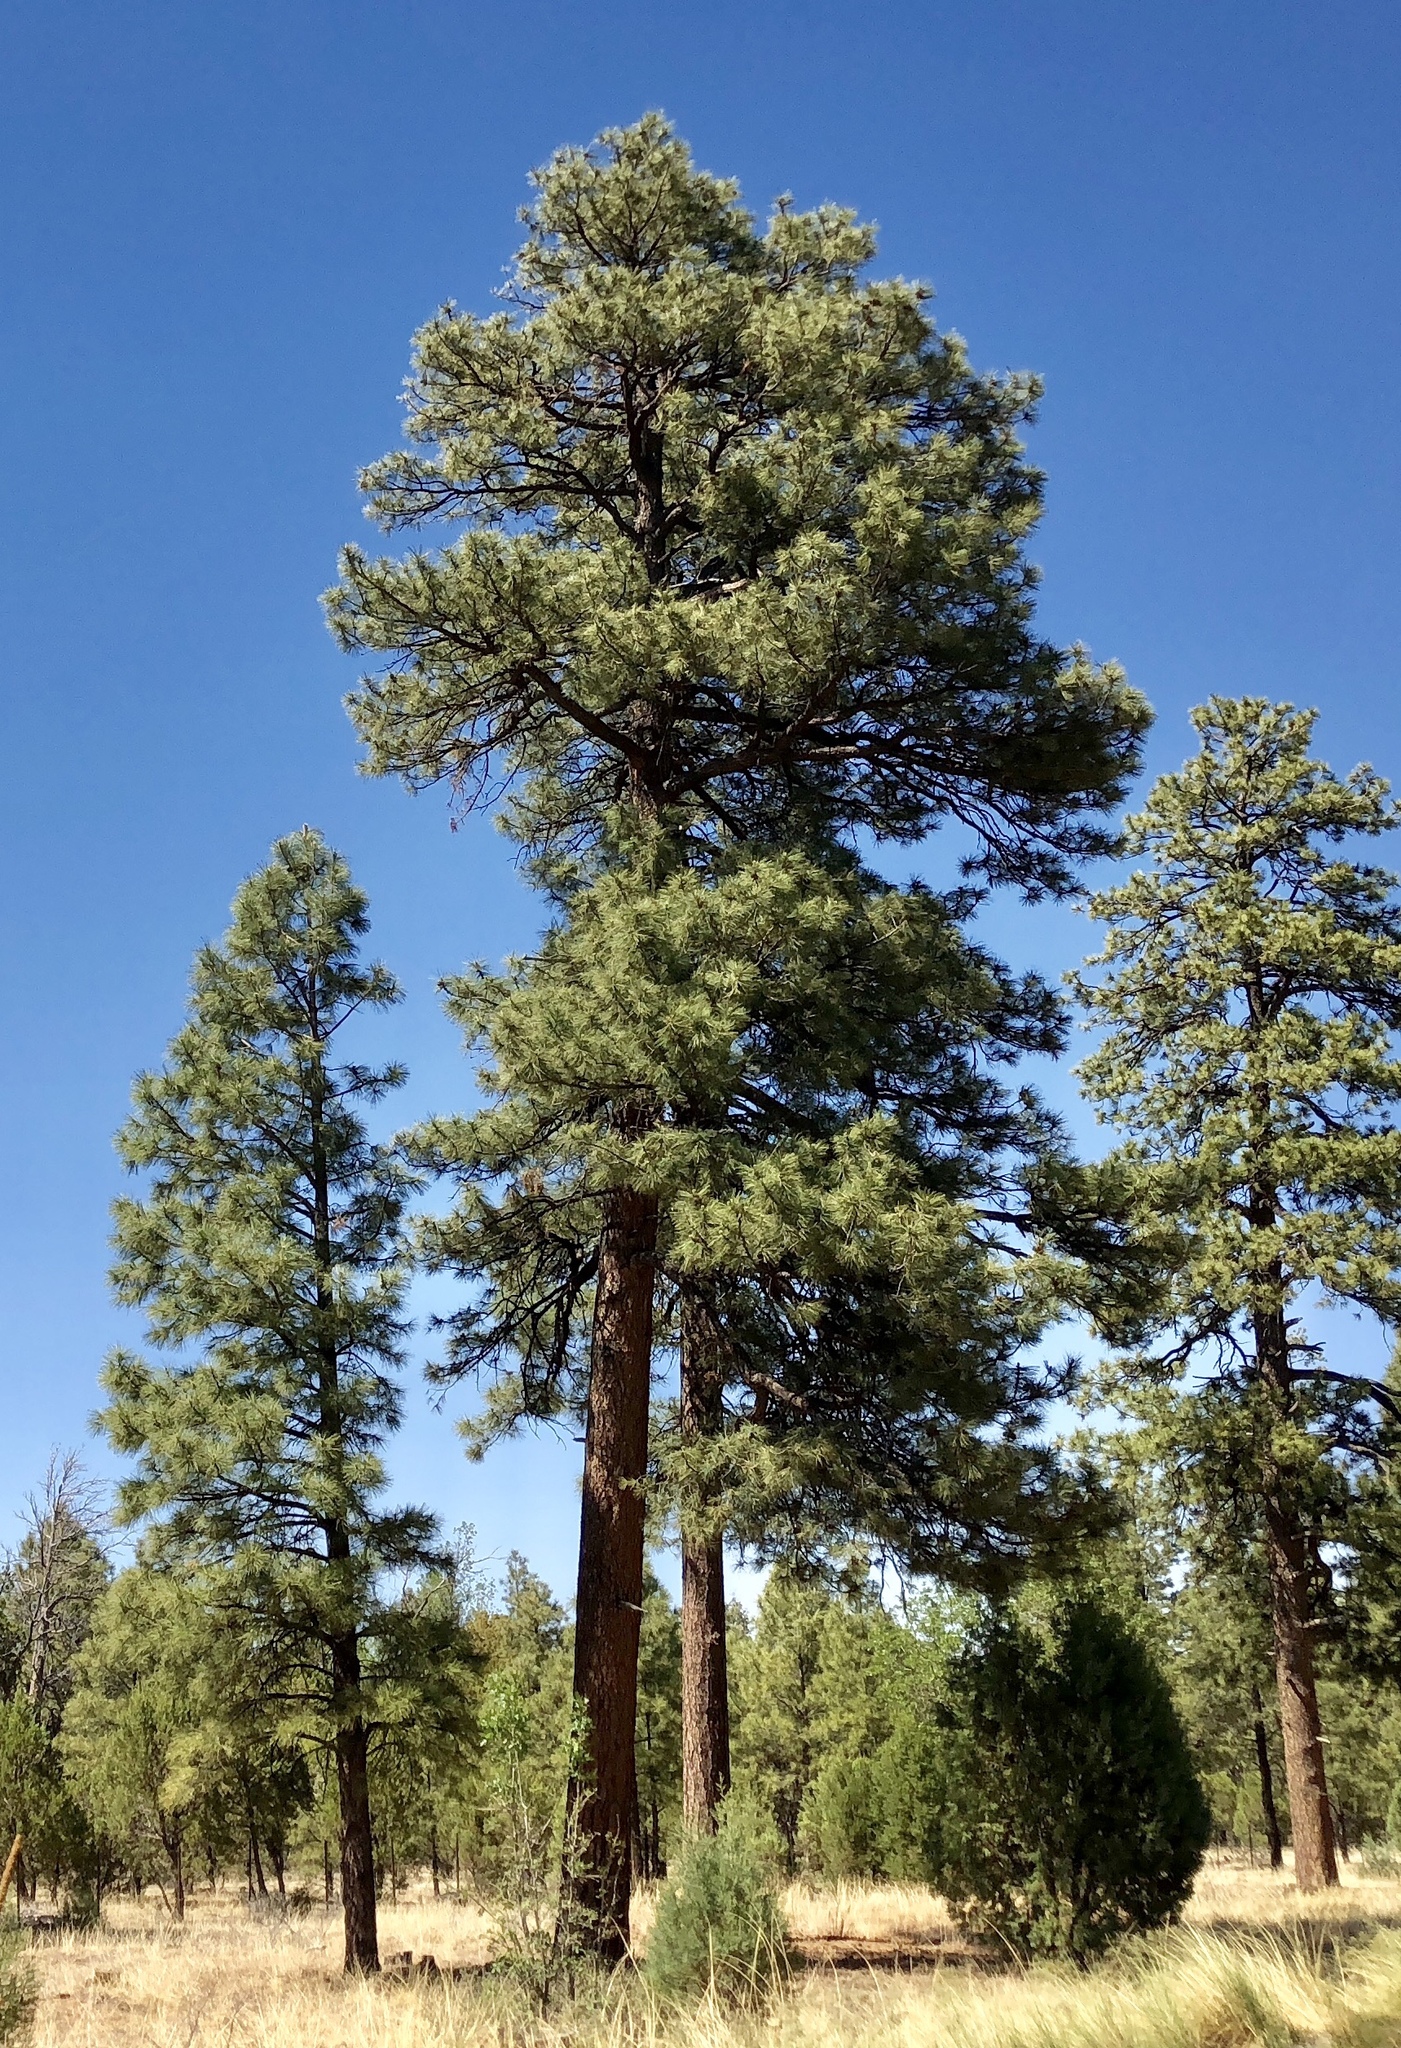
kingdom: Plantae
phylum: Tracheophyta
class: Pinopsida
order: Pinales
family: Pinaceae
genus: Pinus
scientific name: Pinus ponderosa
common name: Western yellow-pine
